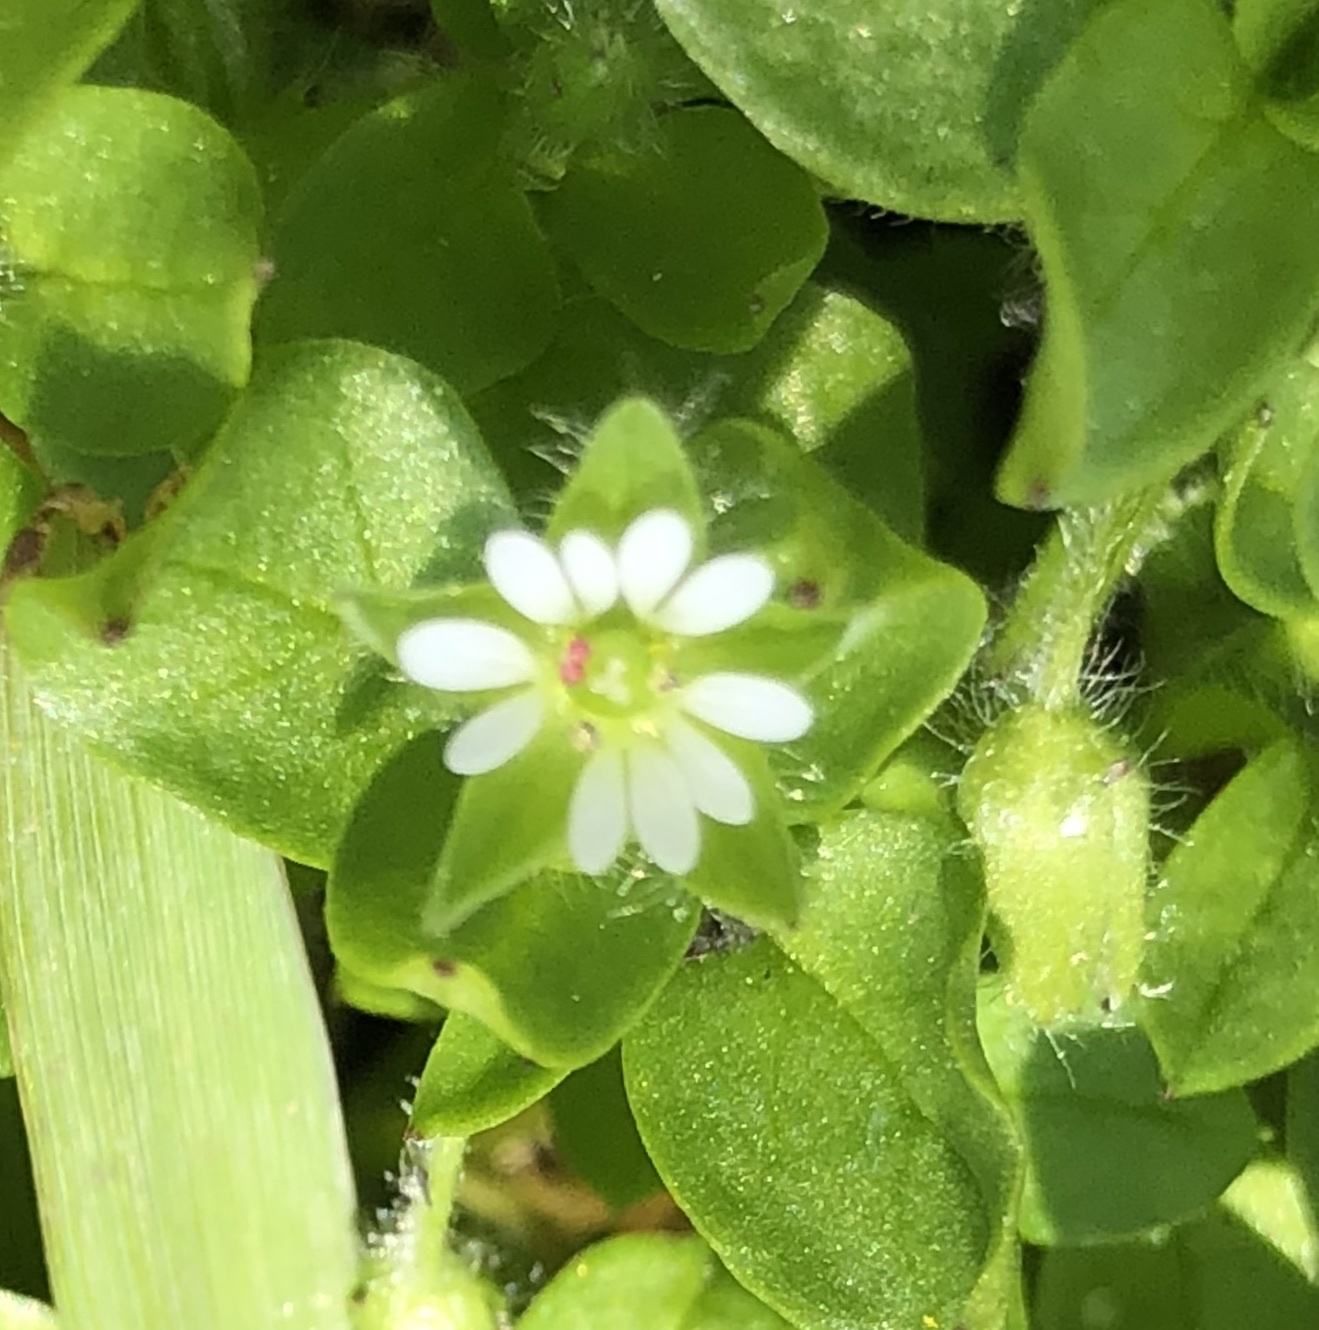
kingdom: Plantae
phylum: Tracheophyta
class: Magnoliopsida
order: Caryophyllales
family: Caryophyllaceae
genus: Stellaria
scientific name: Stellaria media
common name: Common chickweed
